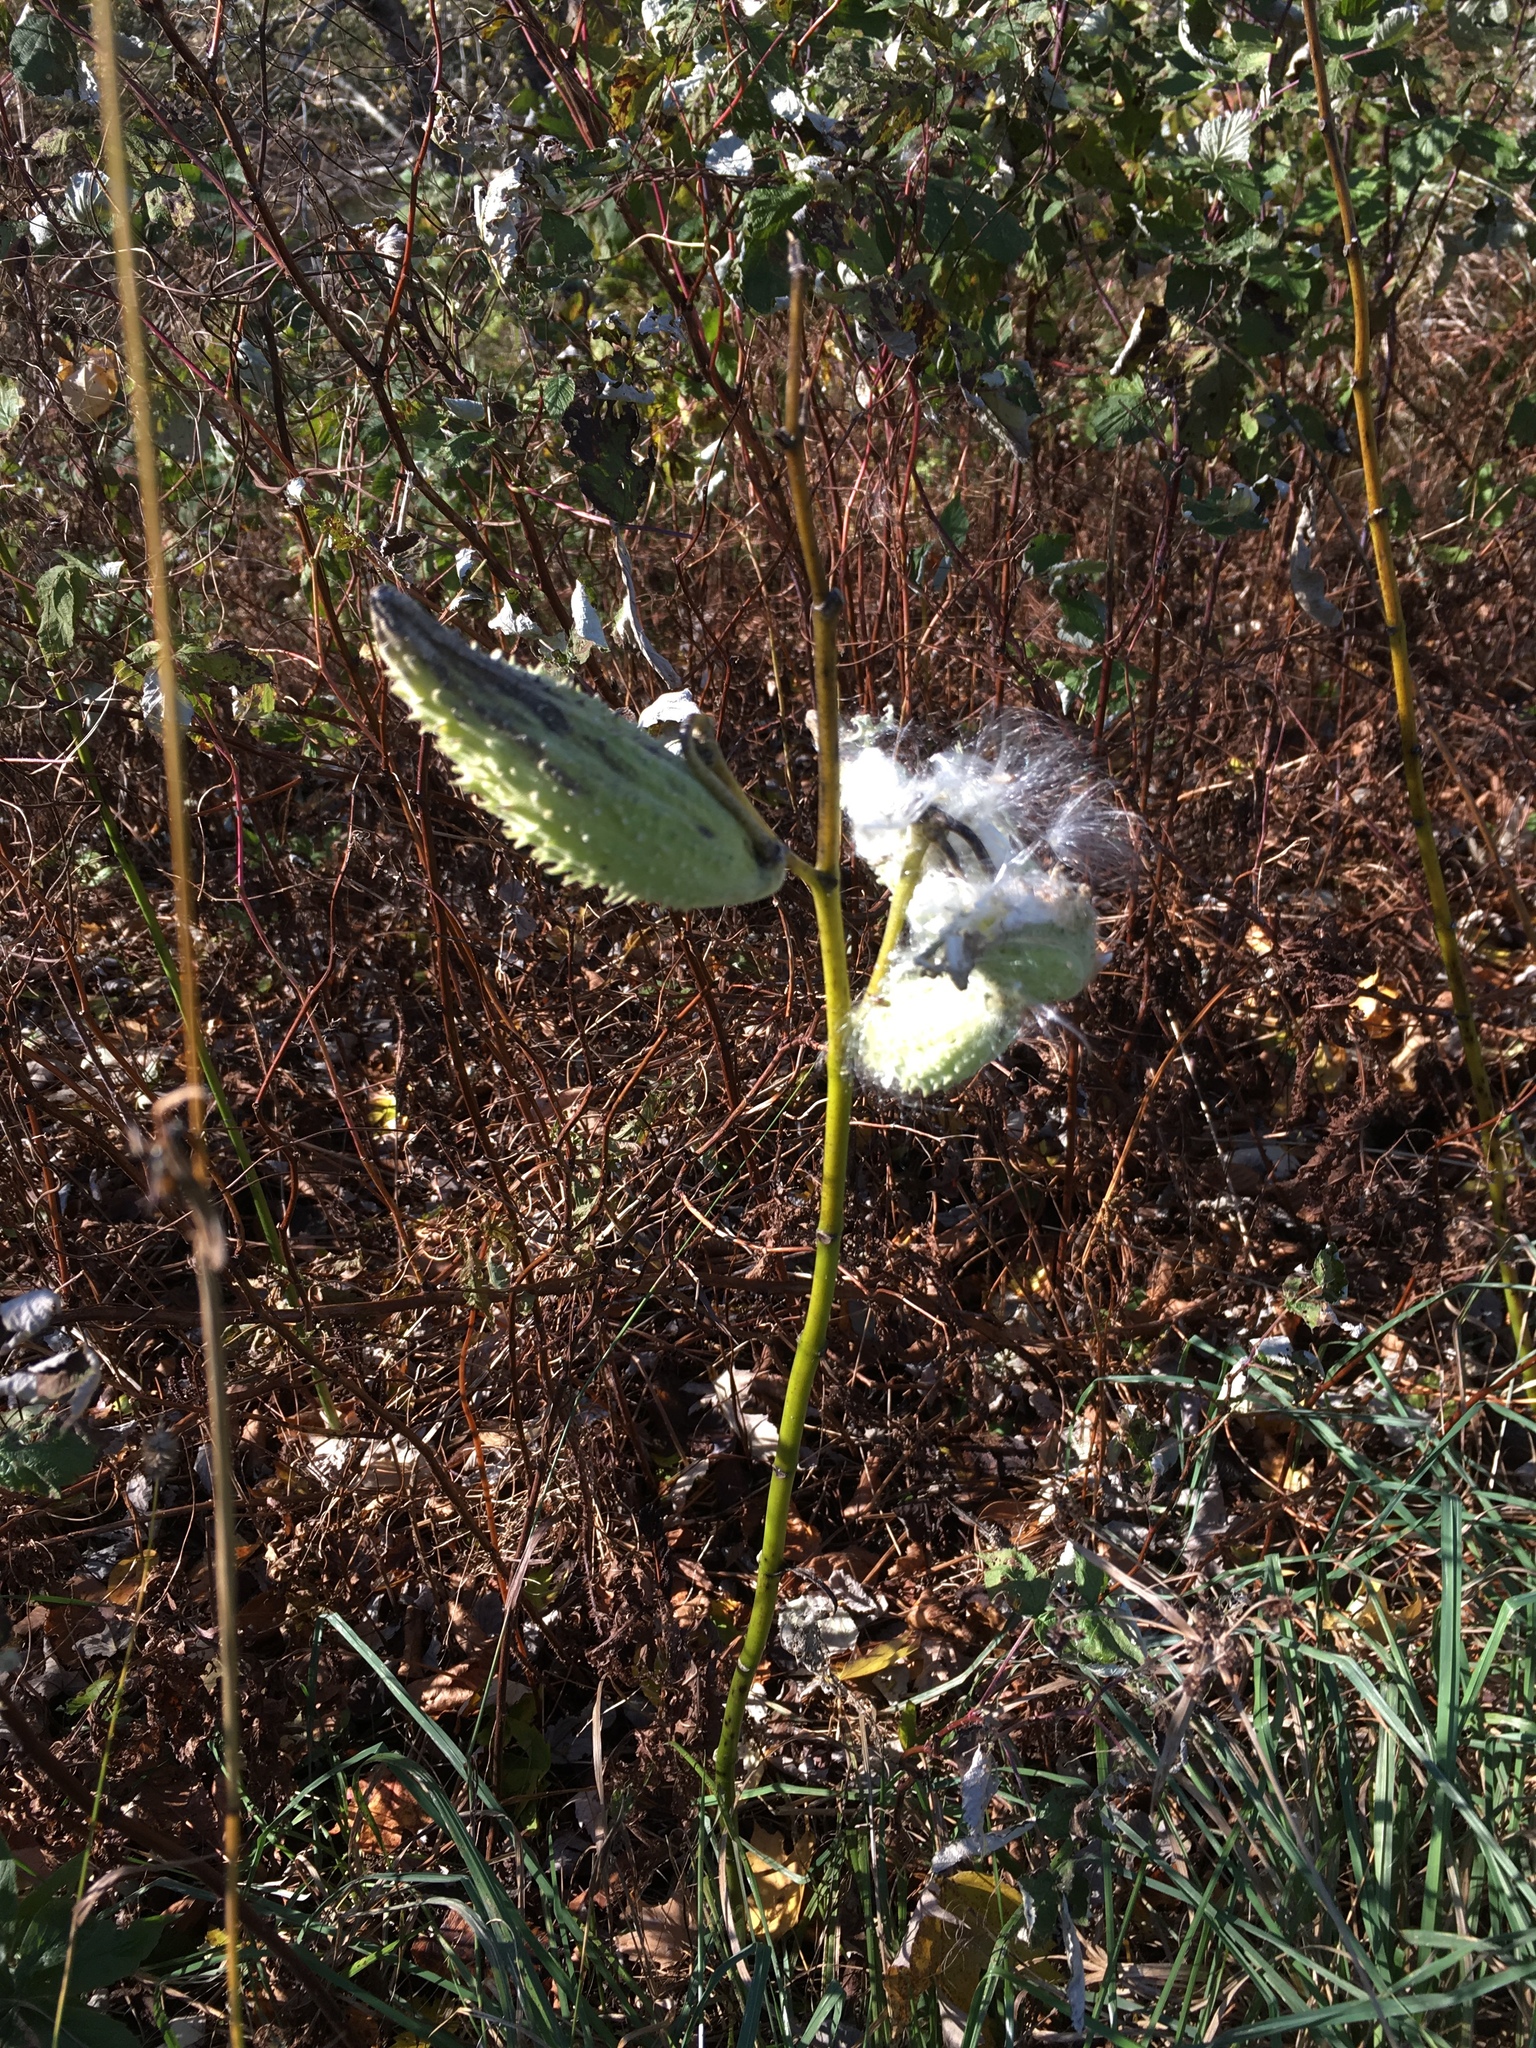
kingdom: Plantae
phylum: Tracheophyta
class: Magnoliopsida
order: Gentianales
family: Apocynaceae
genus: Asclepias
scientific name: Asclepias syriaca
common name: Common milkweed
